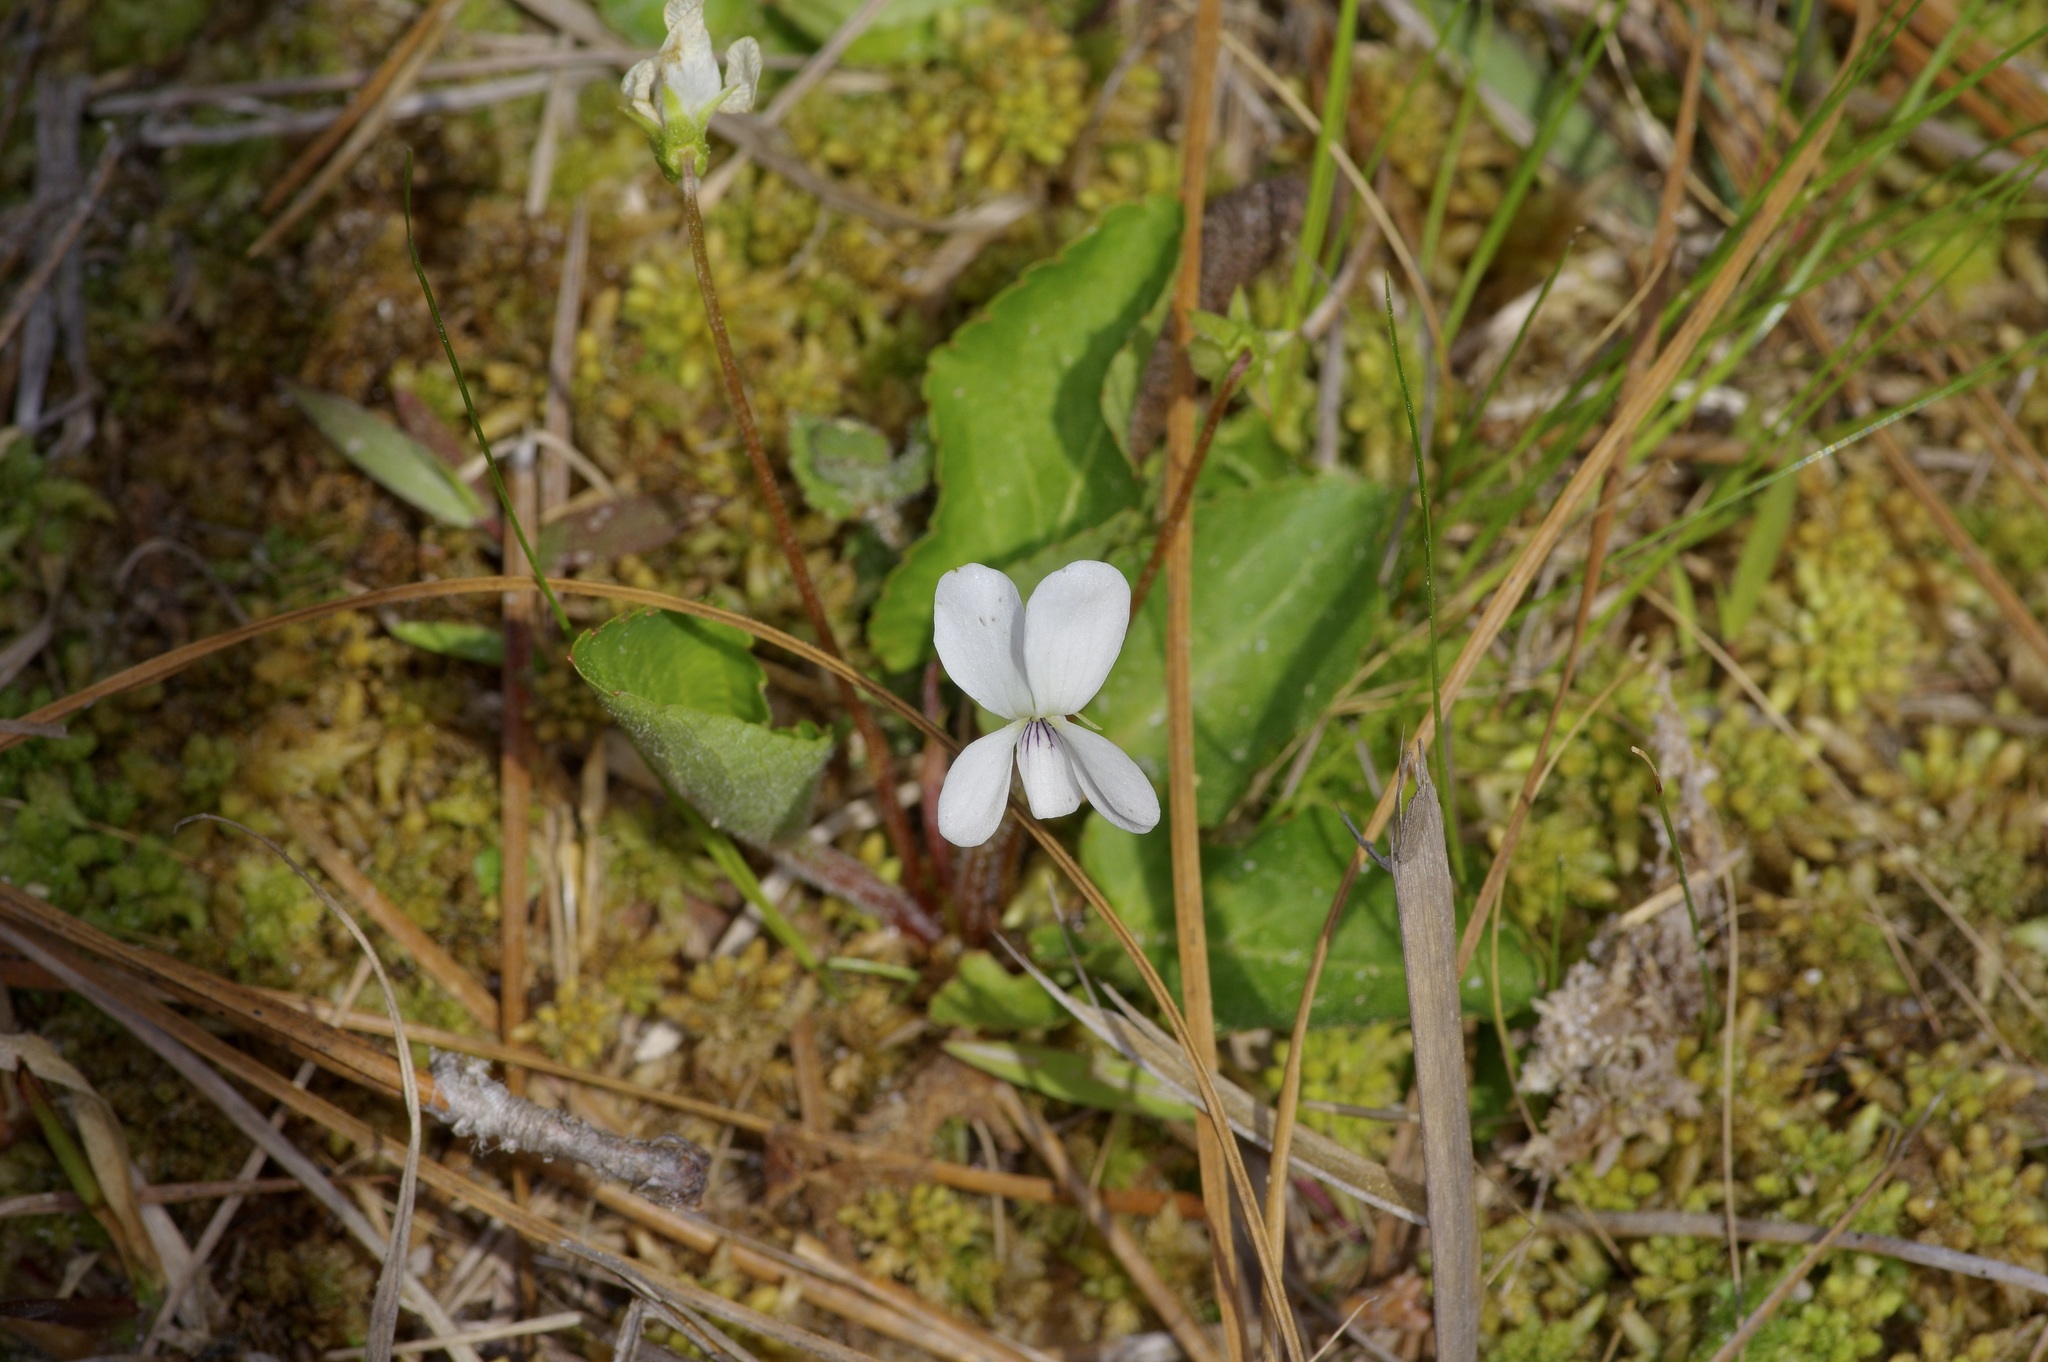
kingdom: Plantae
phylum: Tracheophyta
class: Magnoliopsida
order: Malpighiales
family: Violaceae
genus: Viola
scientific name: Viola primulifolia
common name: Primrose-leaf violet
